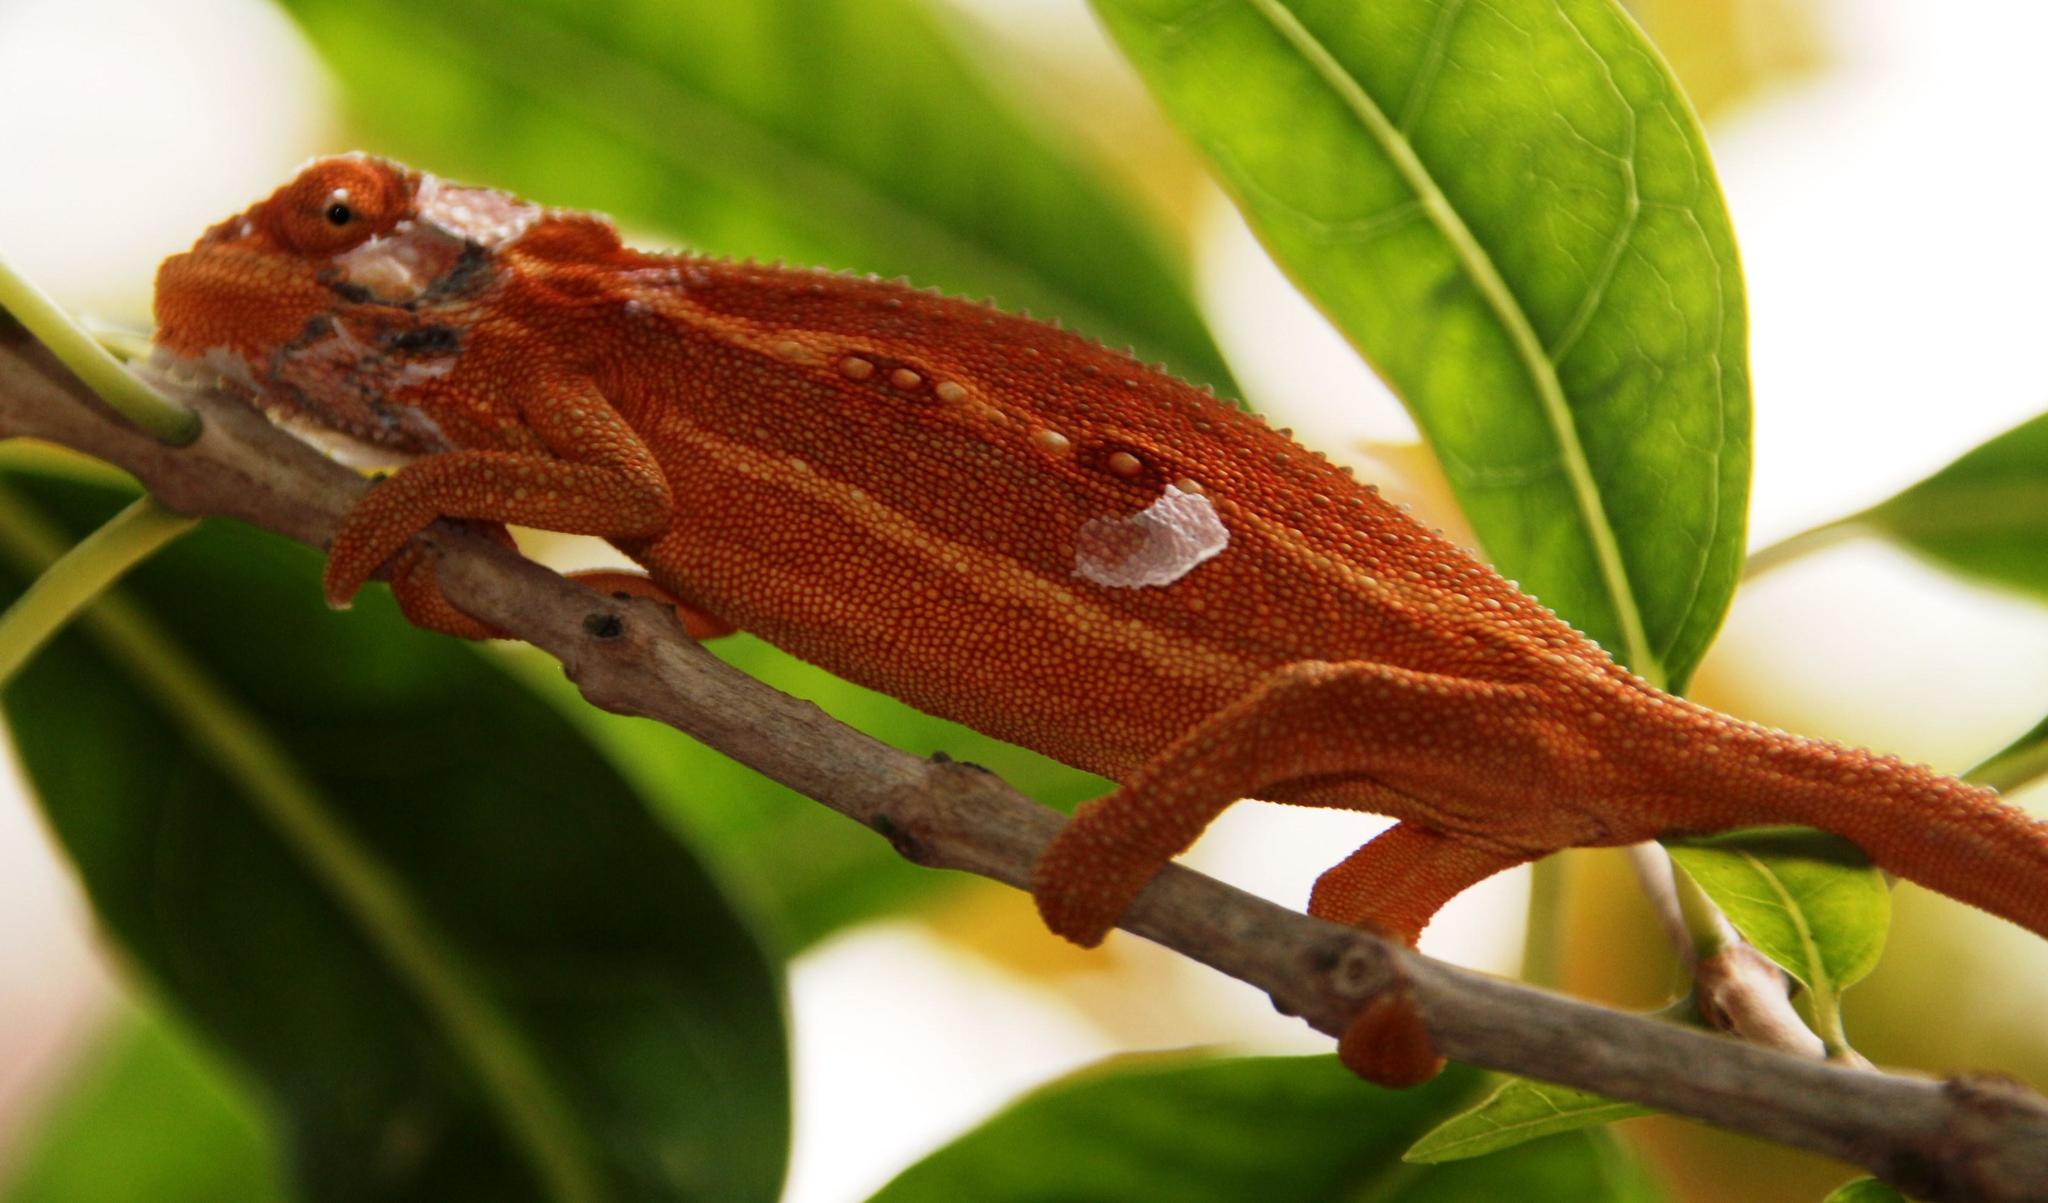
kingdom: Animalia
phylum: Chordata
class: Squamata
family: Chamaeleonidae
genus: Bradypodion
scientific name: Bradypodion pumilum
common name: Cape dwarf chameleon
